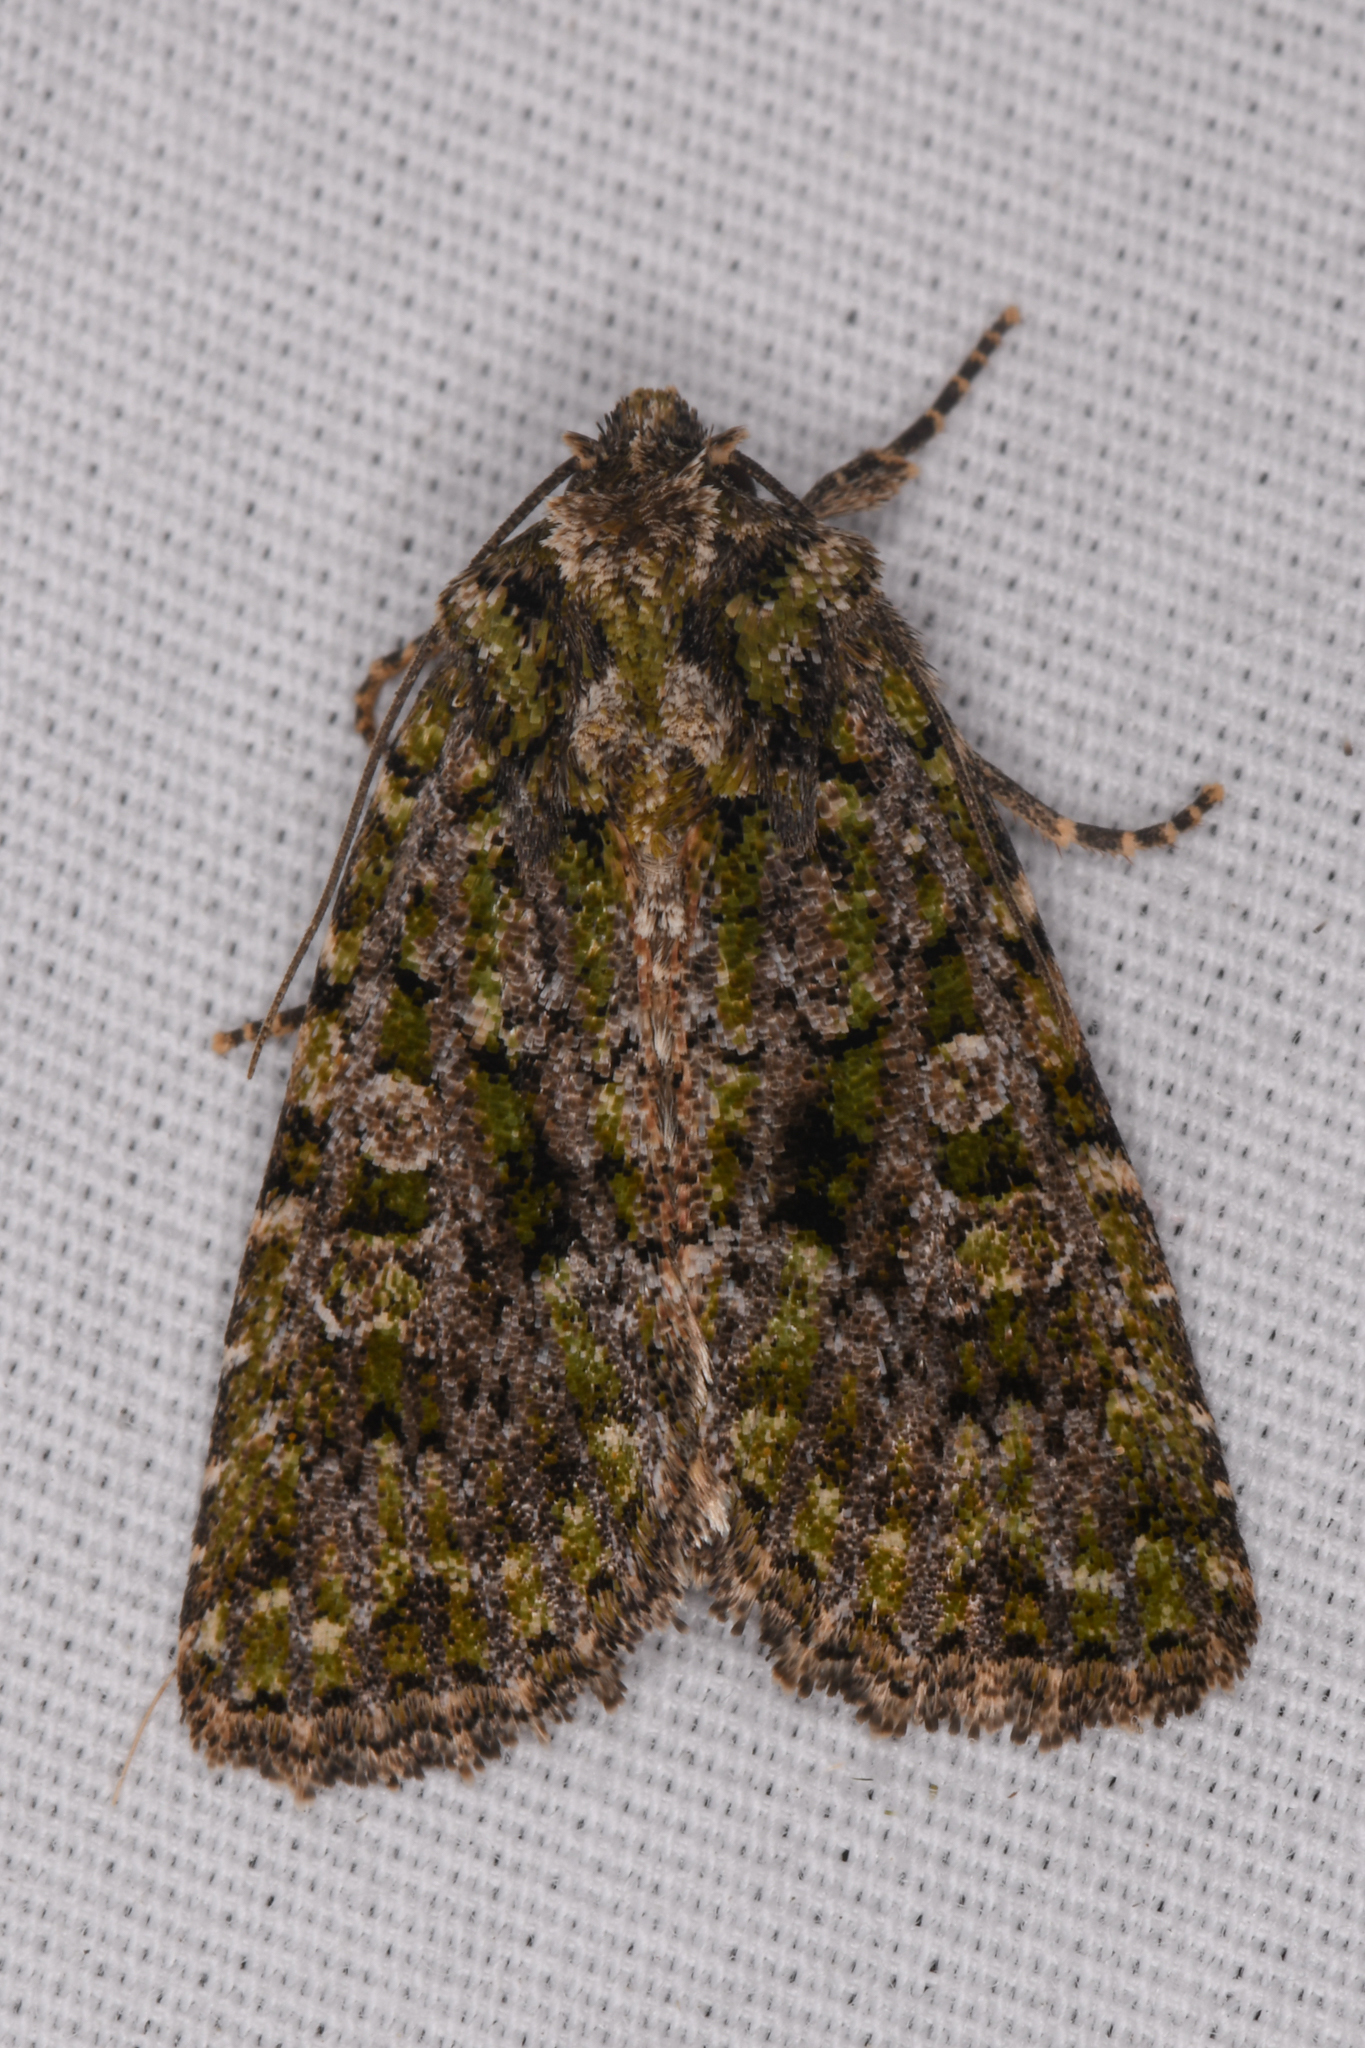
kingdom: Animalia
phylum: Arthropoda
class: Insecta
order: Lepidoptera
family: Noctuidae
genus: Aseptis
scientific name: Aseptis marina
